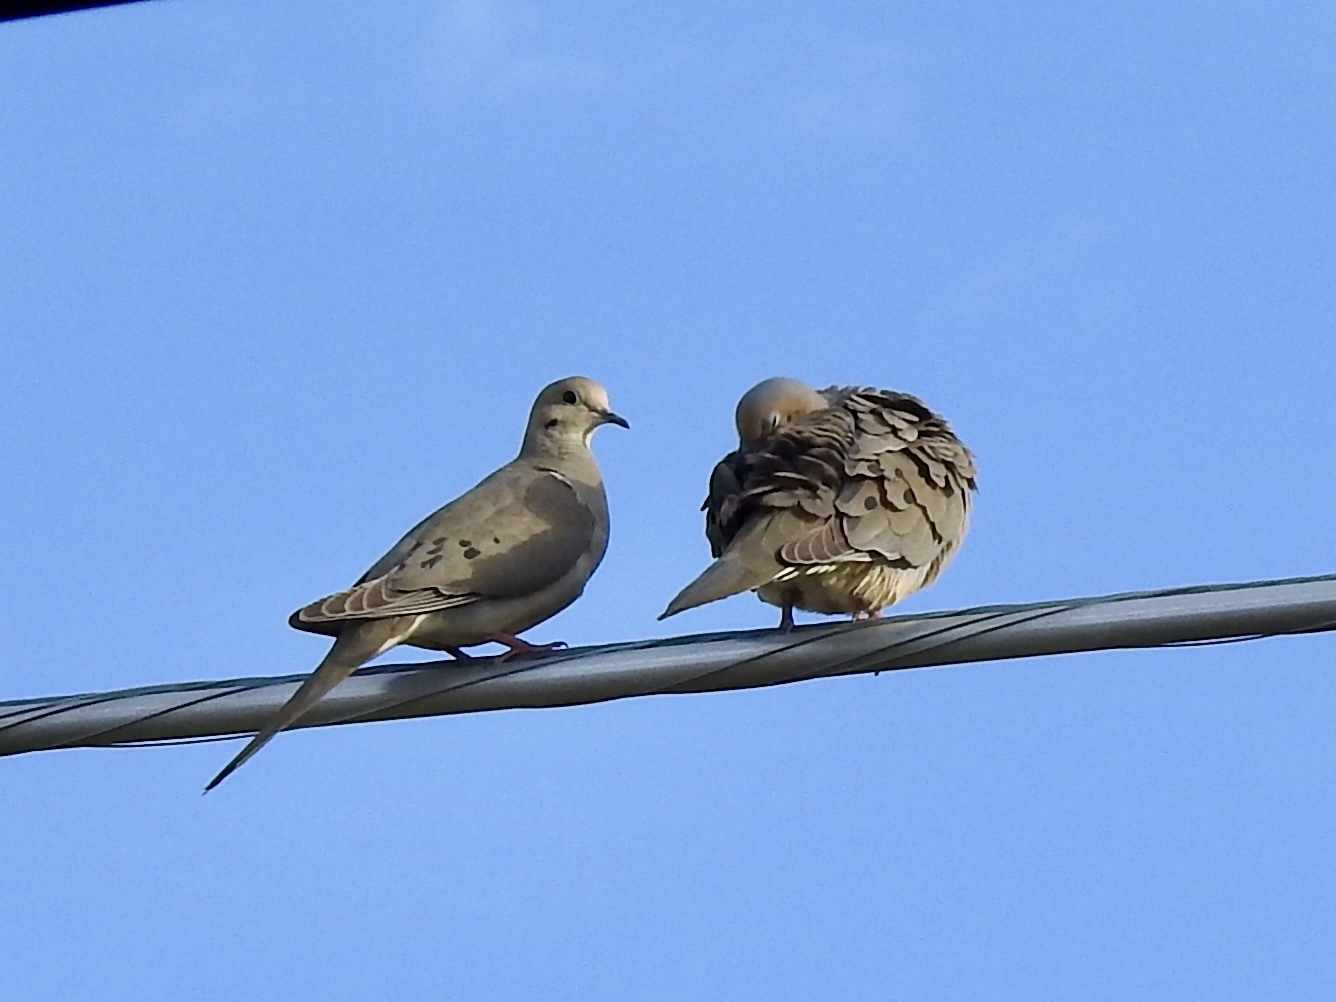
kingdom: Animalia
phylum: Chordata
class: Aves
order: Columbiformes
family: Columbidae
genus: Zenaida
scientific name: Zenaida macroura
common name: Mourning dove
